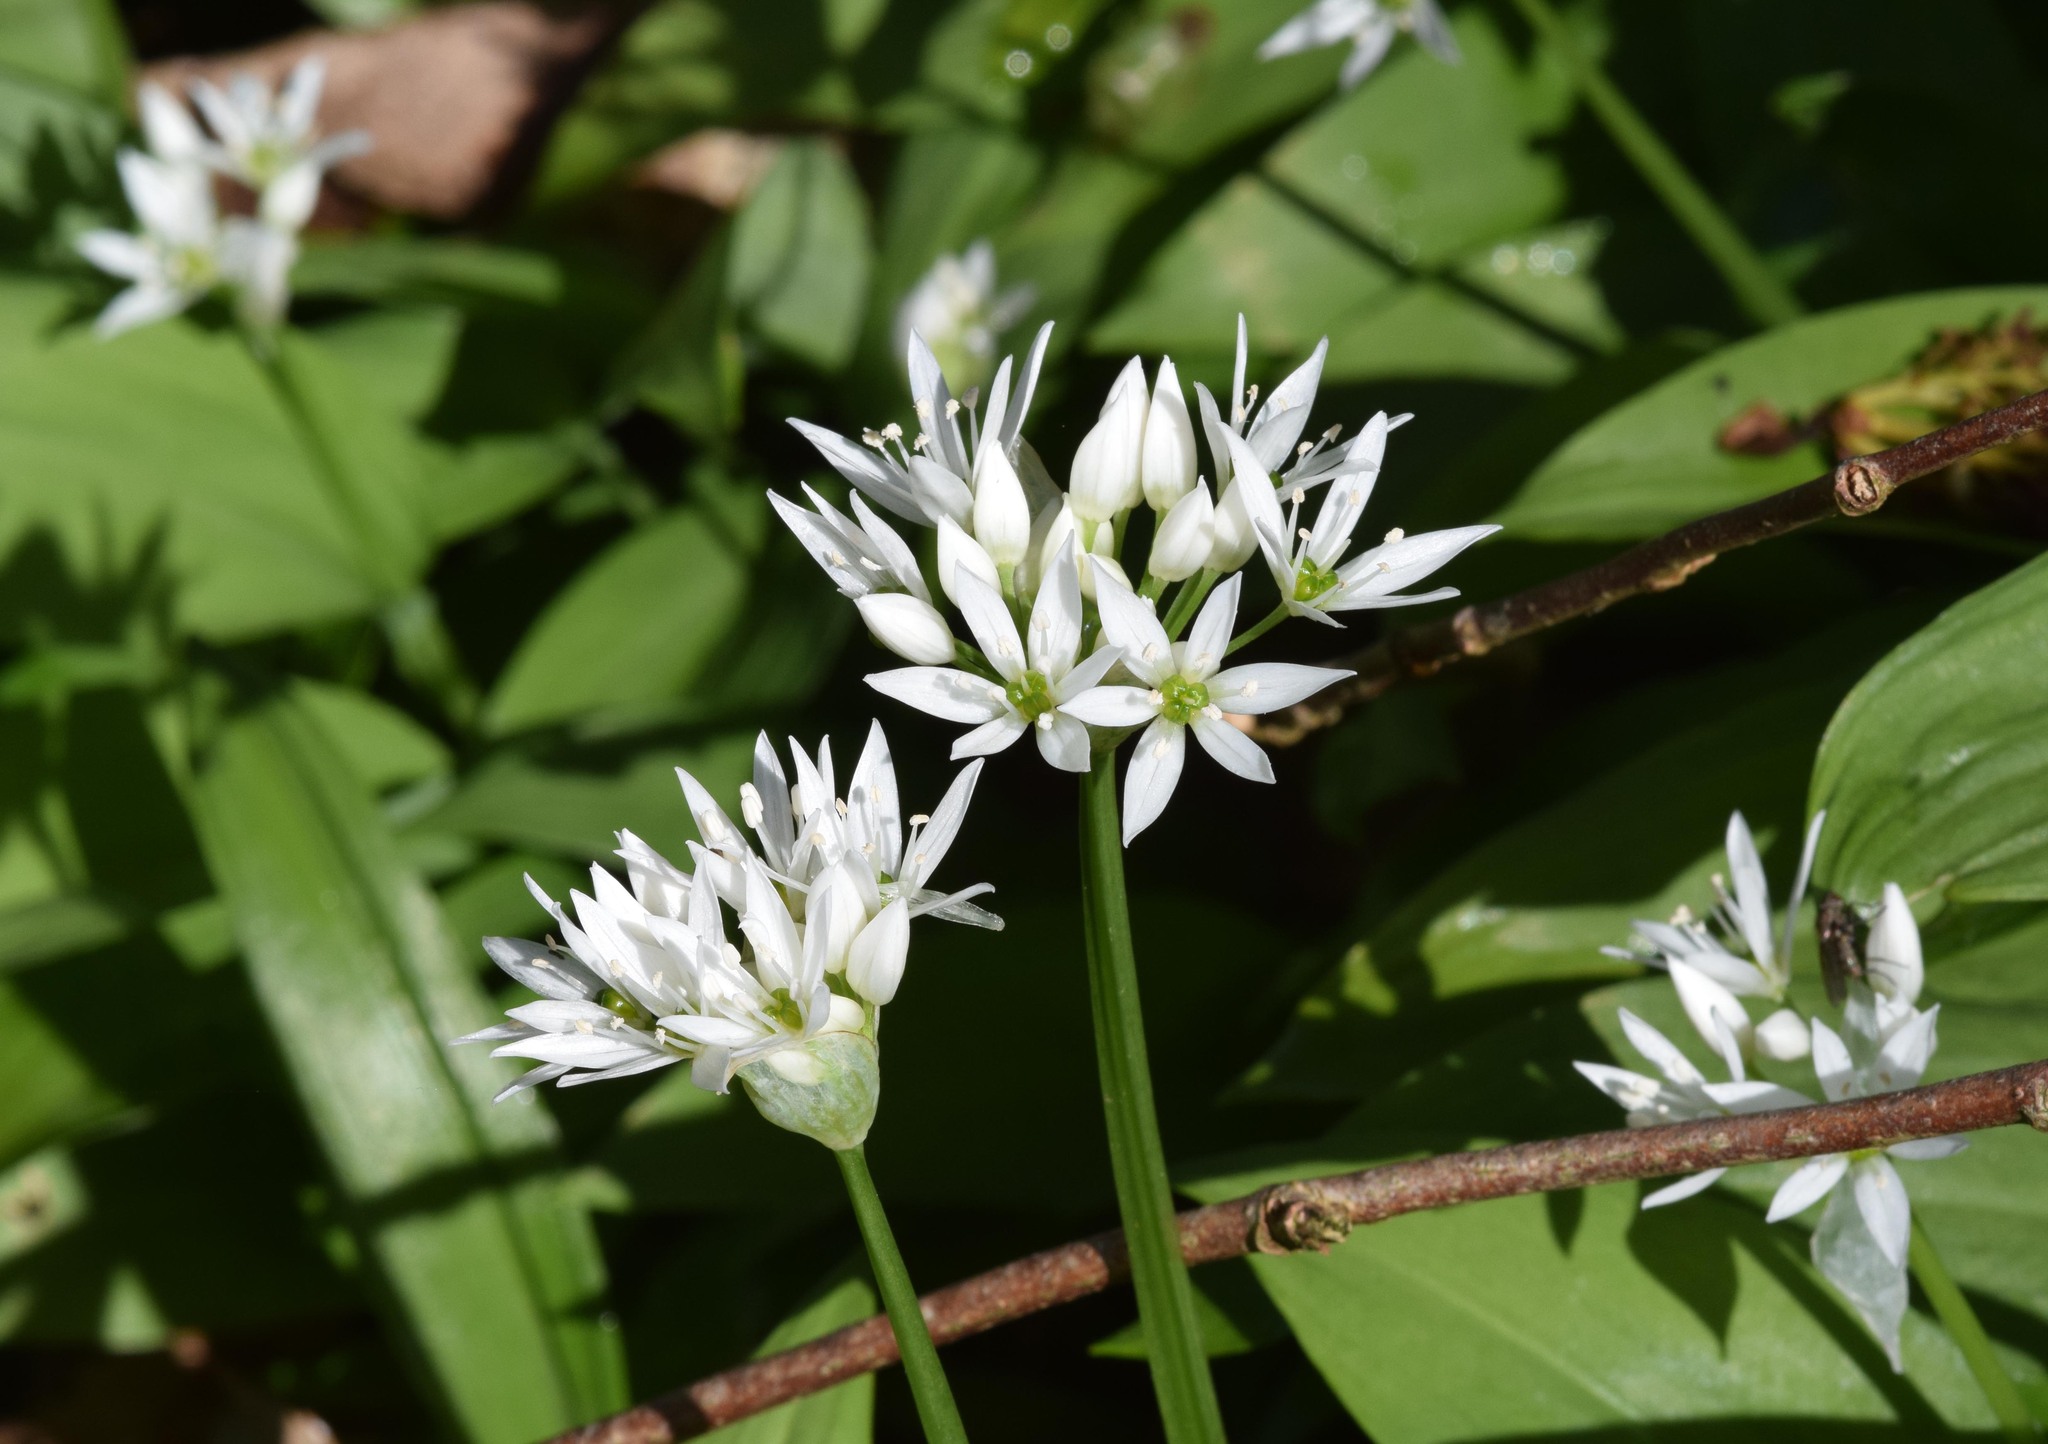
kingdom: Plantae
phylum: Tracheophyta
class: Liliopsida
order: Asparagales
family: Amaryllidaceae
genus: Allium
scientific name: Allium ursinum
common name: Ramsons
